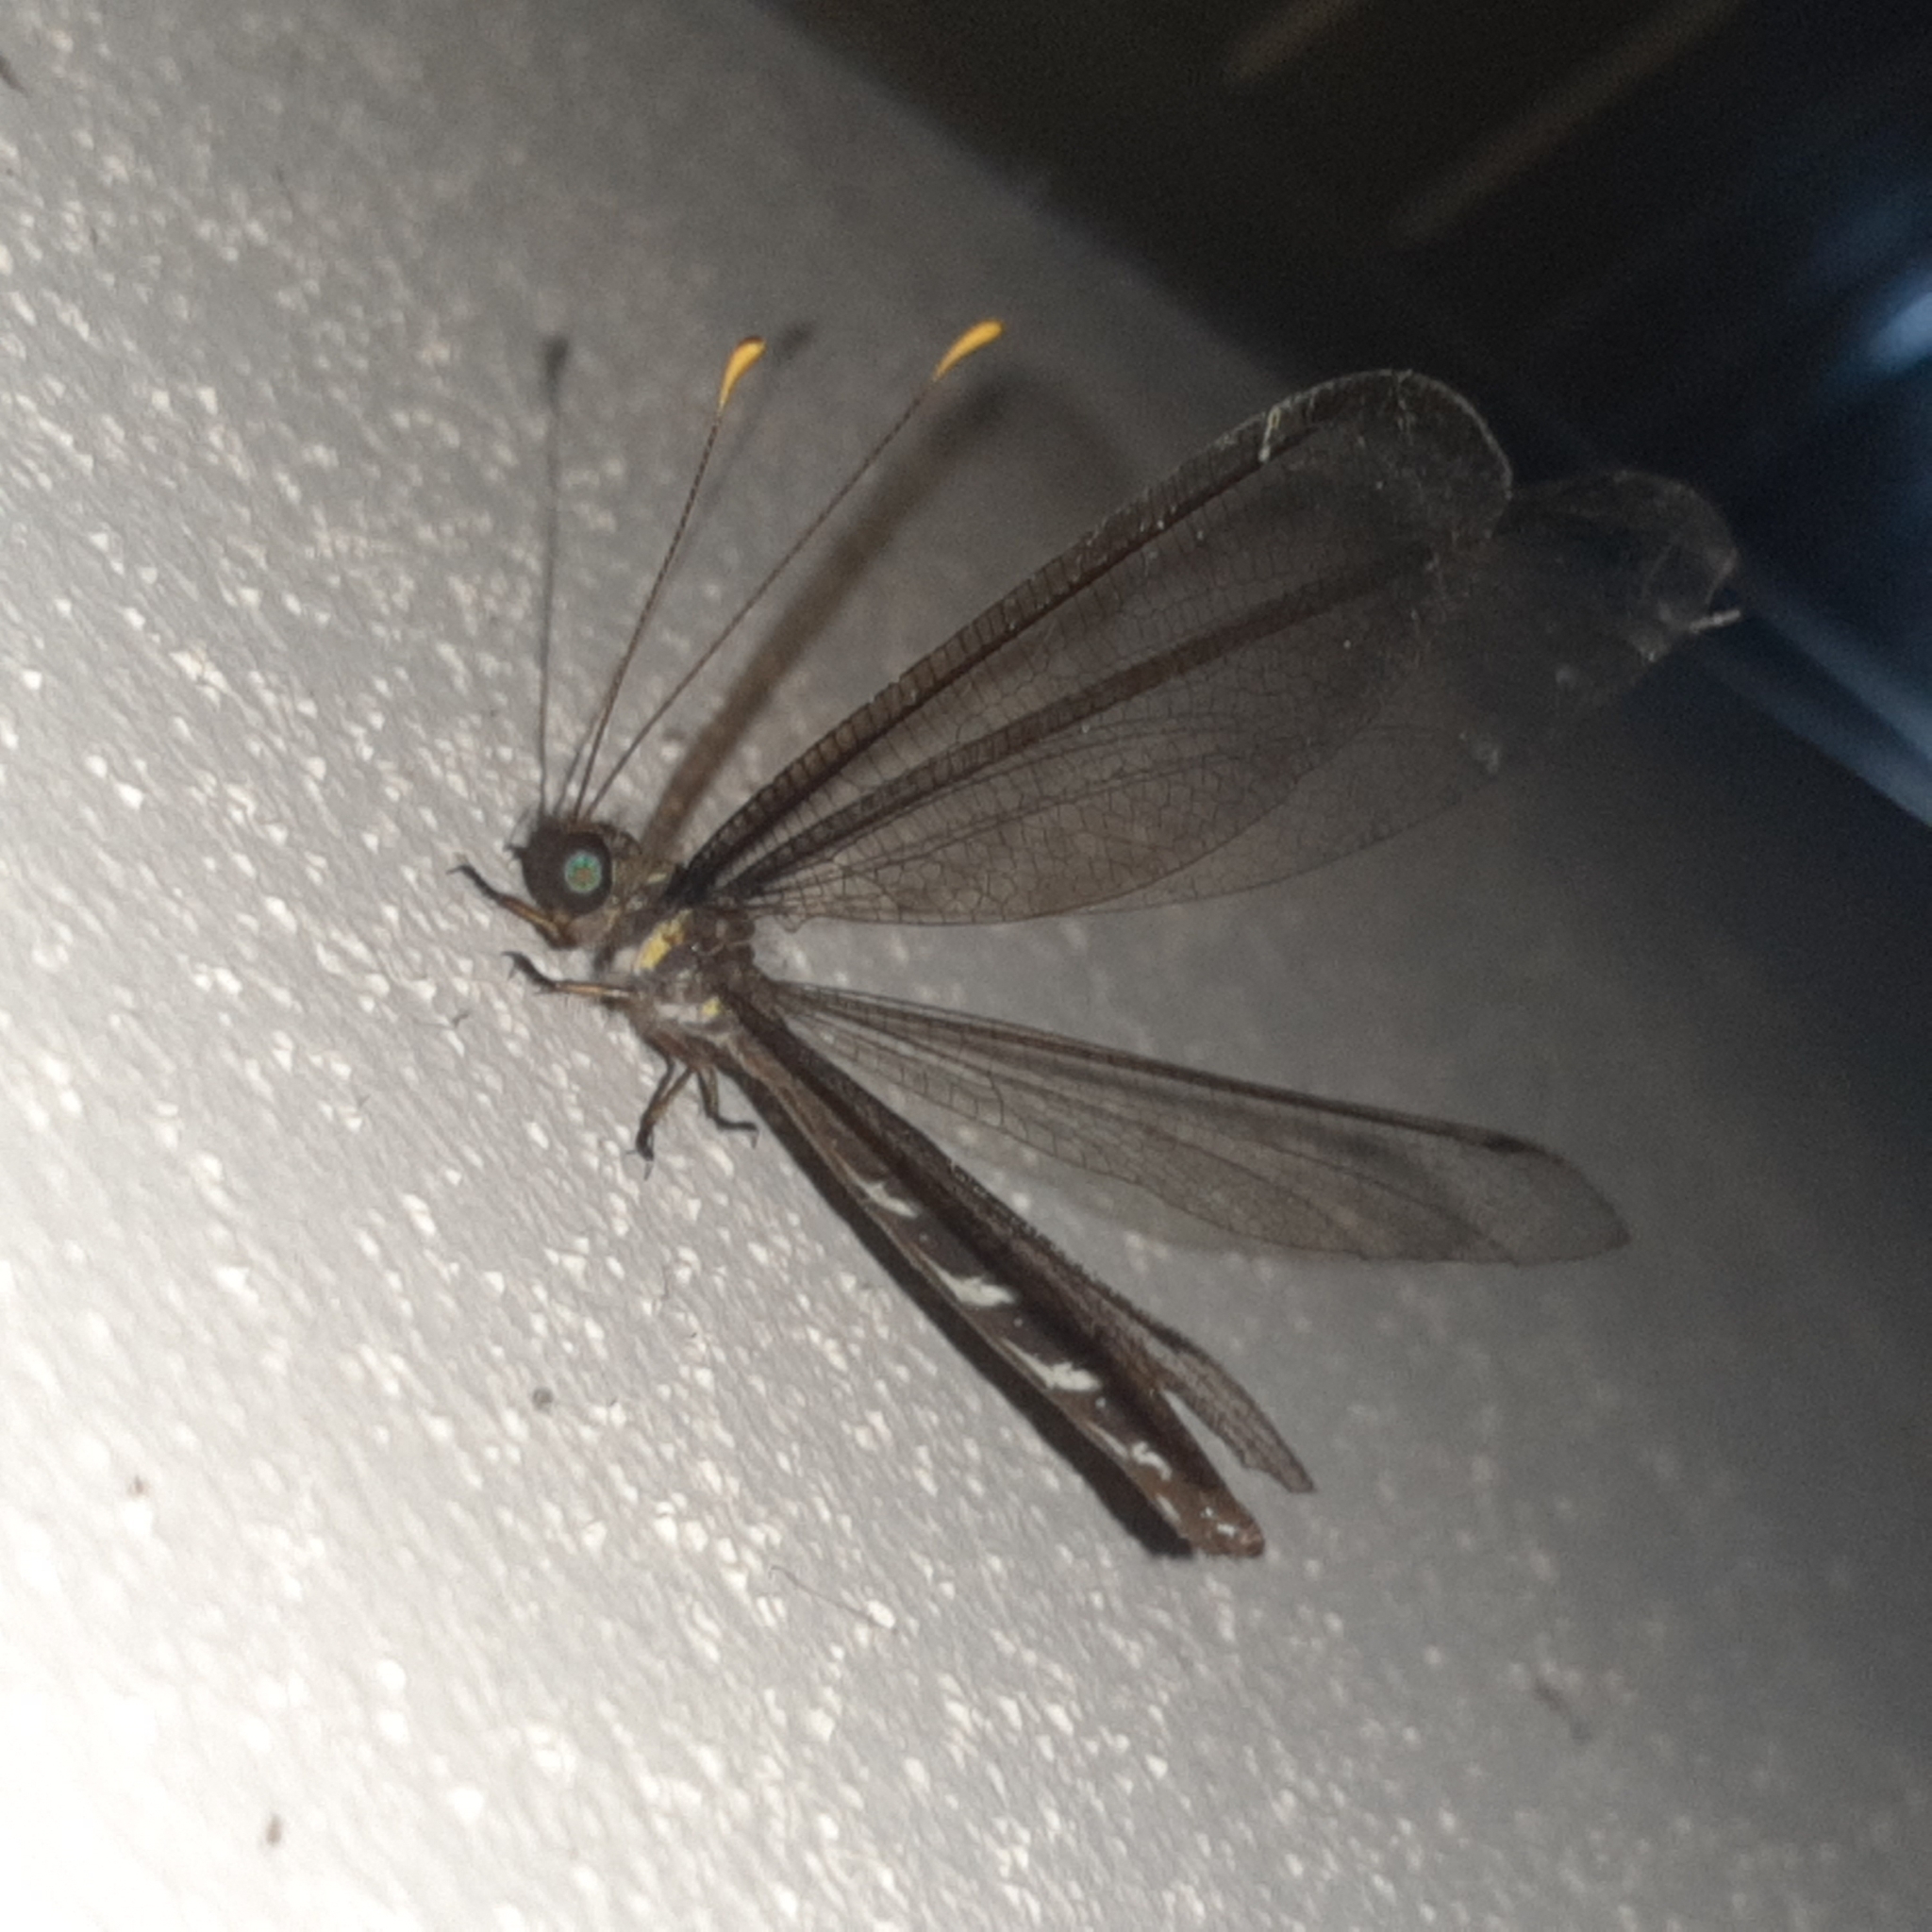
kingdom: Animalia
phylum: Arthropoda
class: Insecta
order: Neuroptera
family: Ascalaphidae
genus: Haploglenius
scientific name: Haploglenius flavicornis
